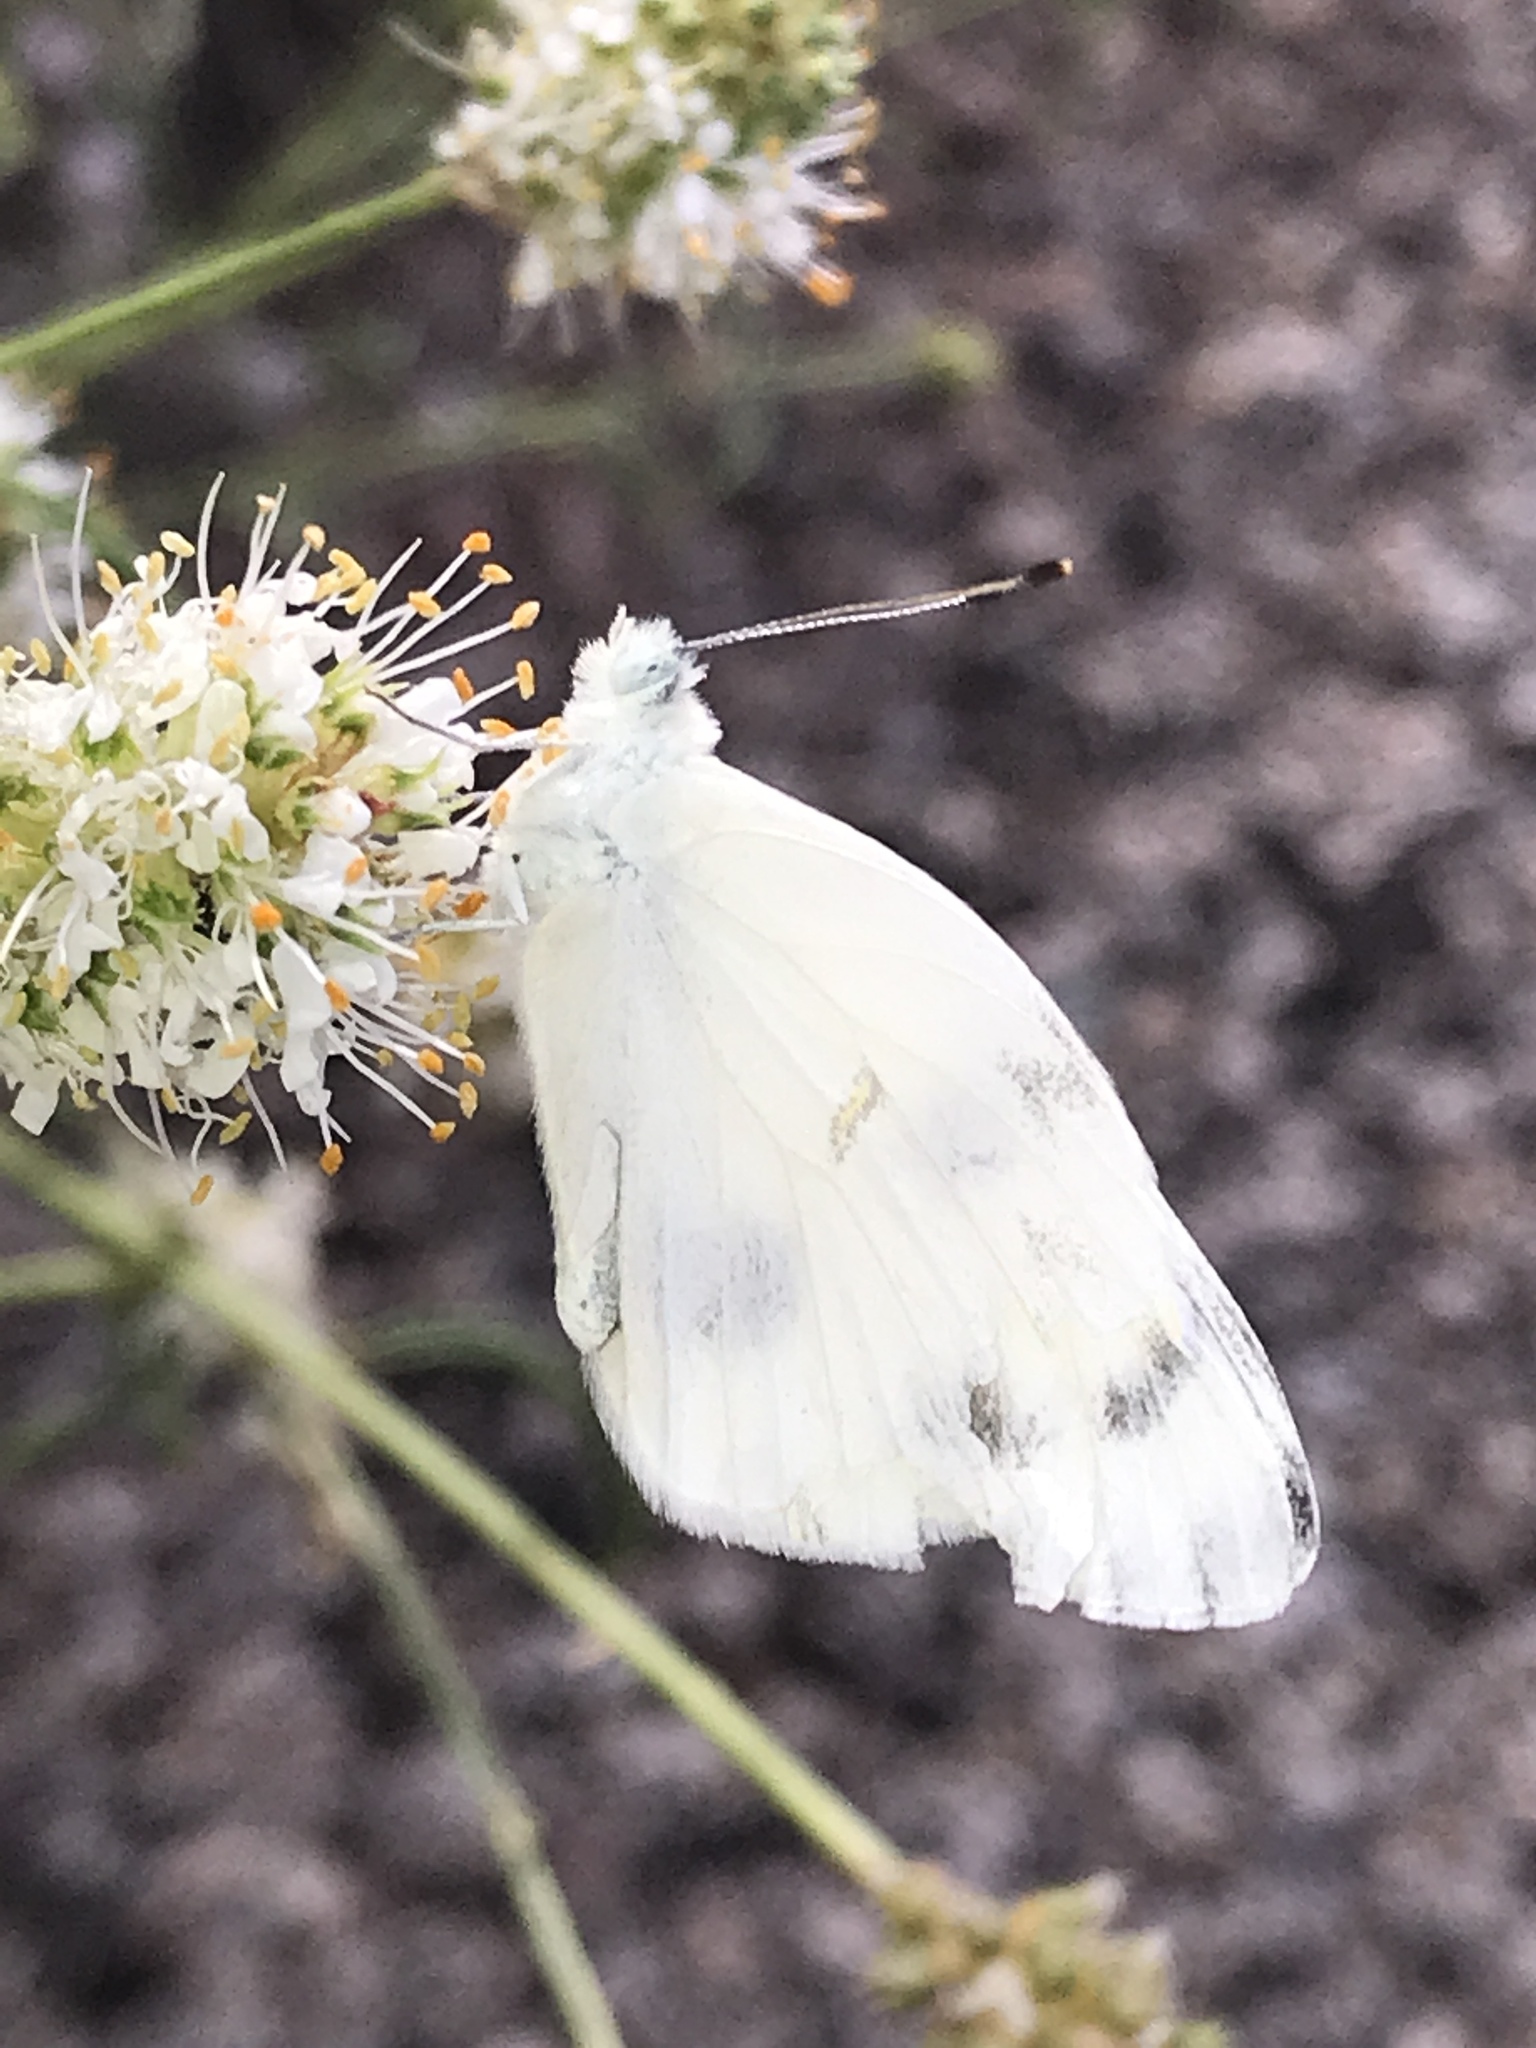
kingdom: Animalia
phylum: Arthropoda
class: Insecta
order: Lepidoptera
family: Pieridae
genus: Pontia
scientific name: Pontia protodice
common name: Checkered white
